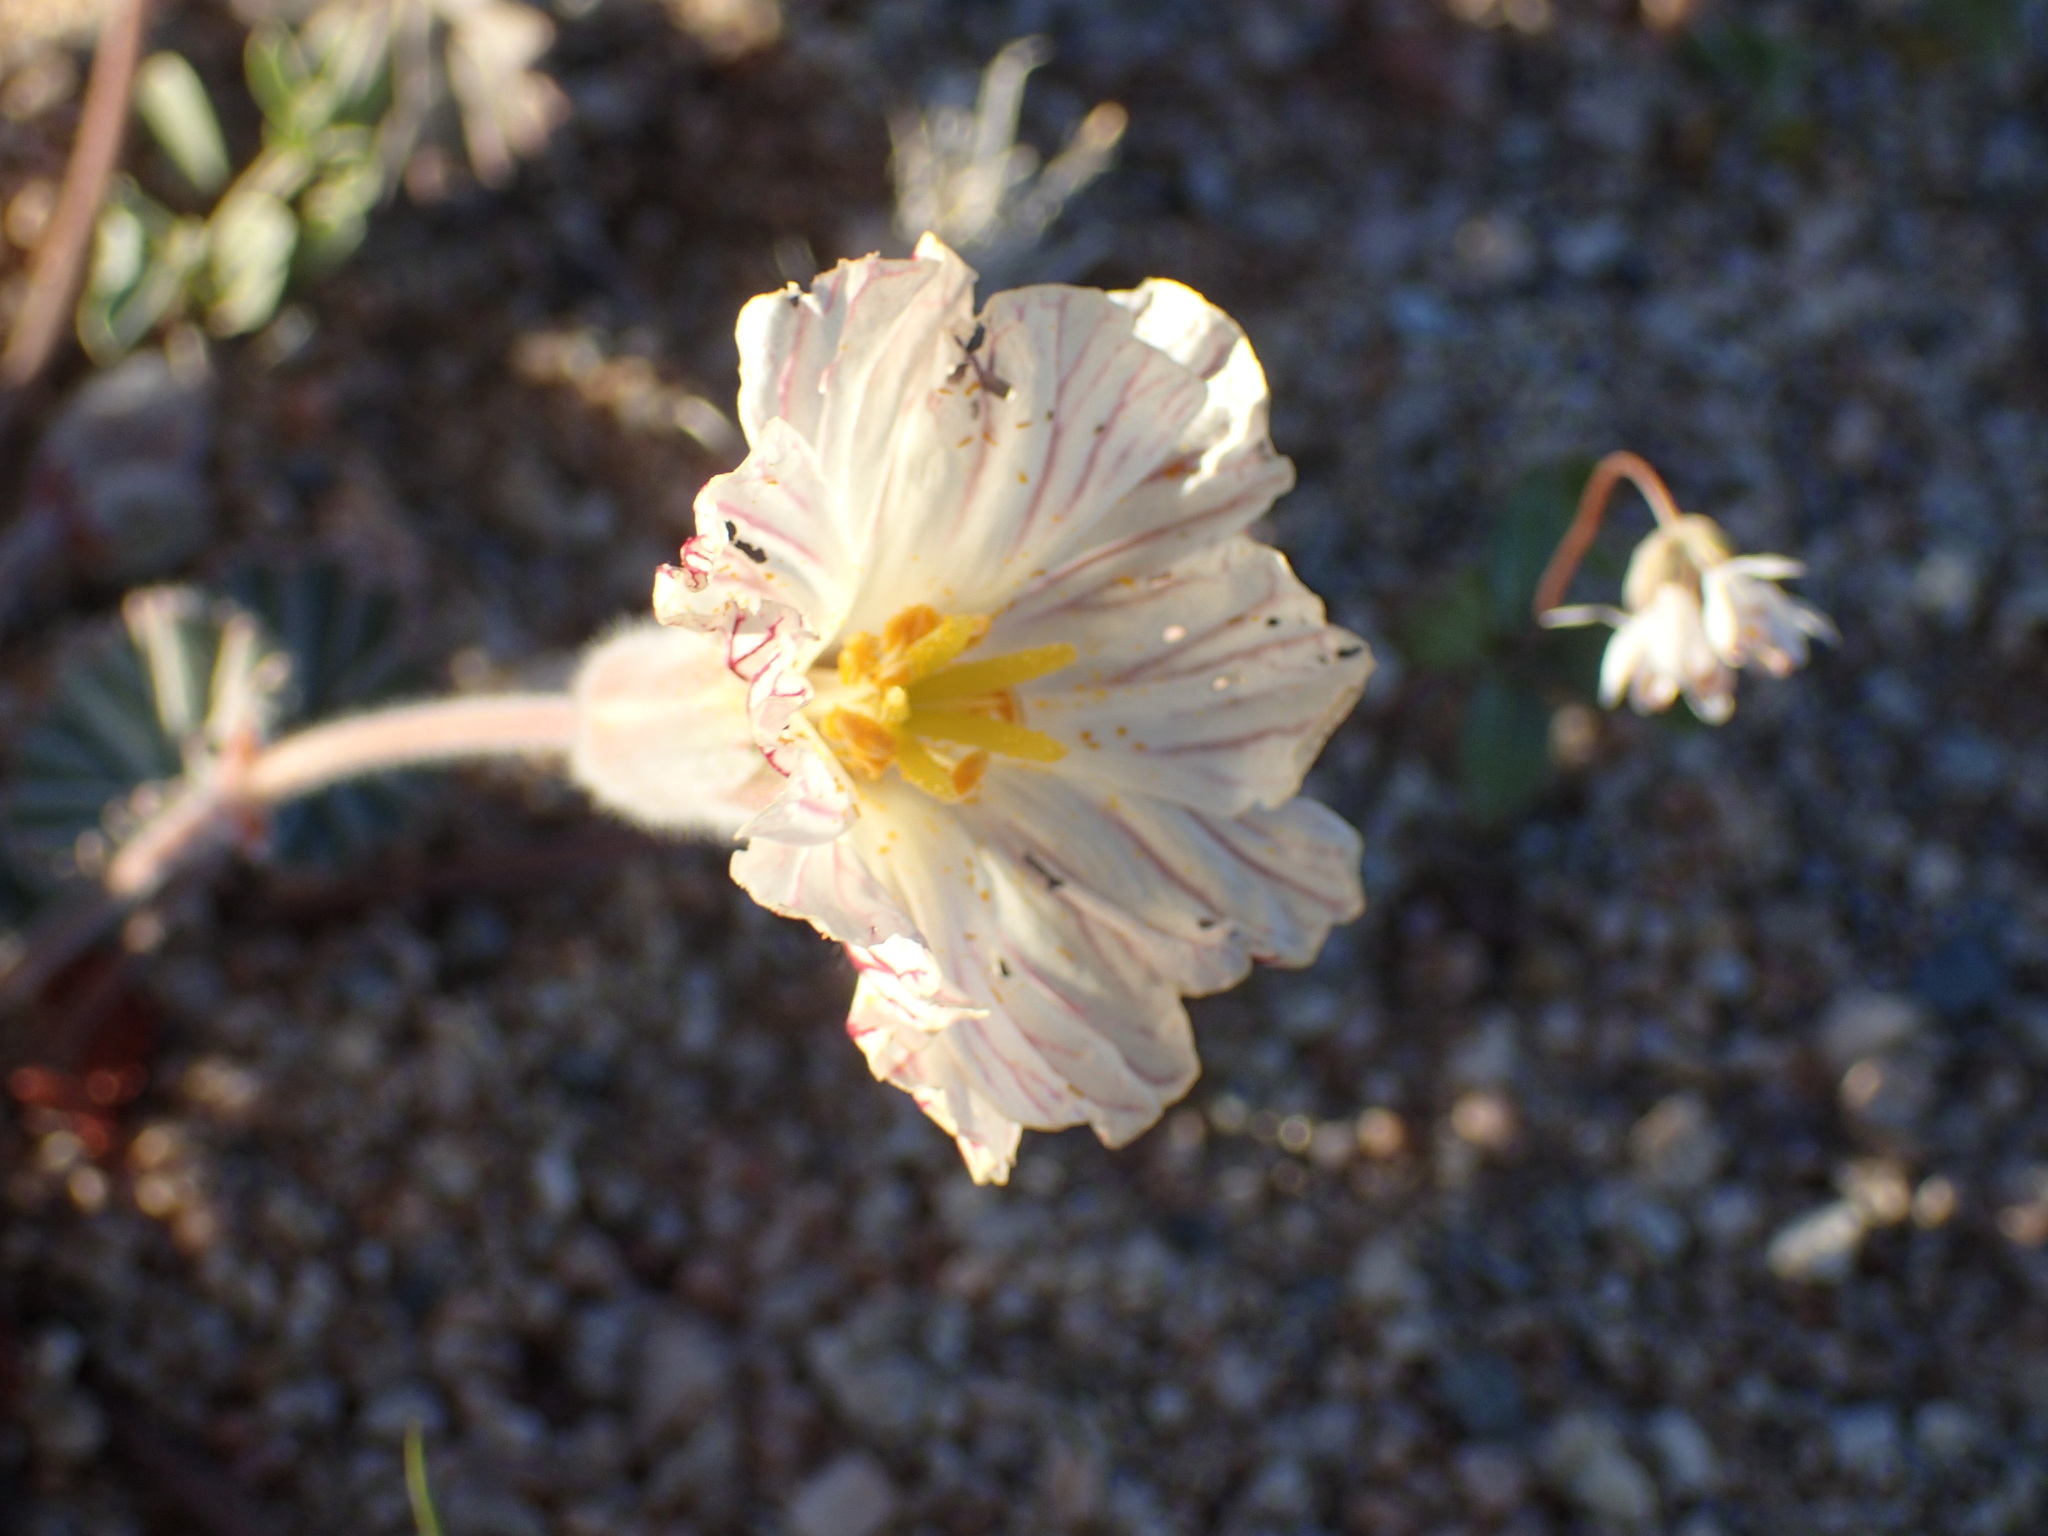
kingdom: Plantae
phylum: Tracheophyta
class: Magnoliopsida
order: Geraniales
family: Geraniaceae
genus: Monsonia
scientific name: Monsonia drudeana
